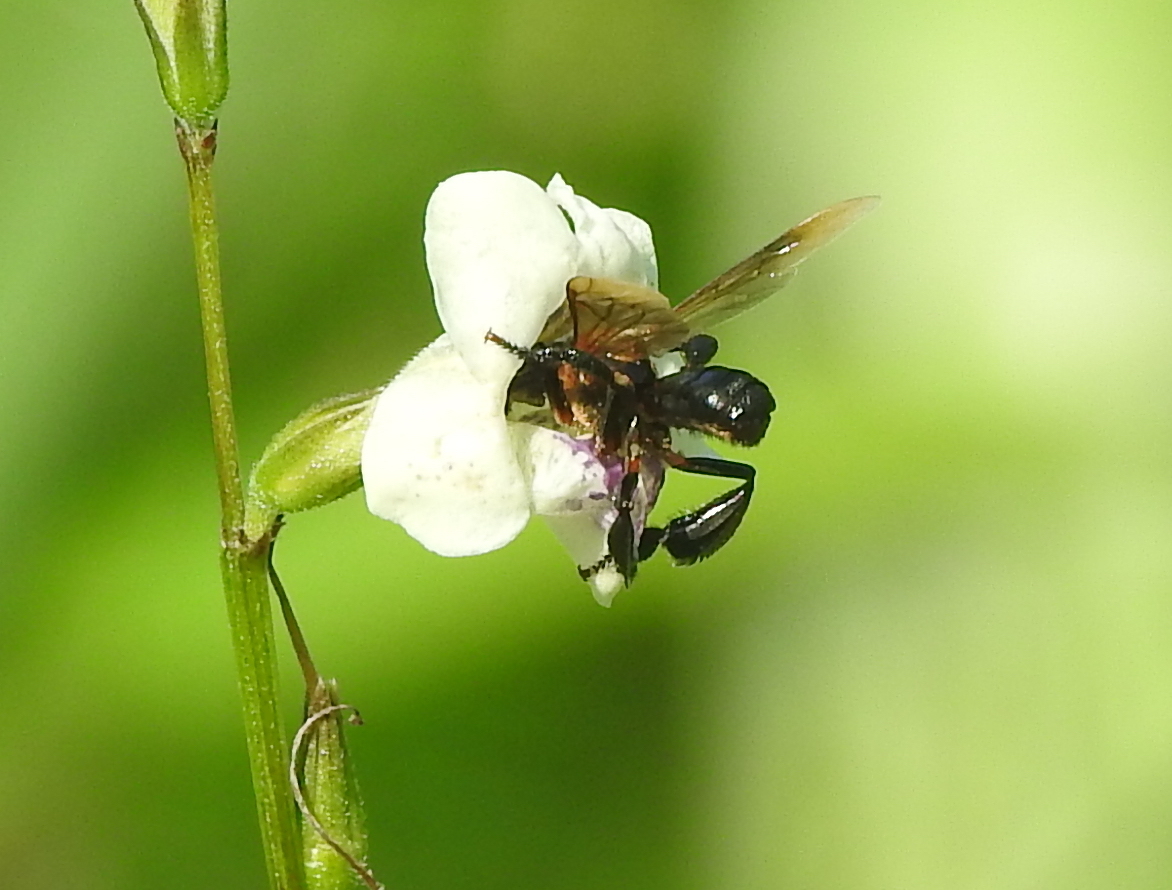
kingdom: Animalia
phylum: Arthropoda
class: Insecta
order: Hymenoptera
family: Apidae
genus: Geniotrigona
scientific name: Geniotrigona thoracica
